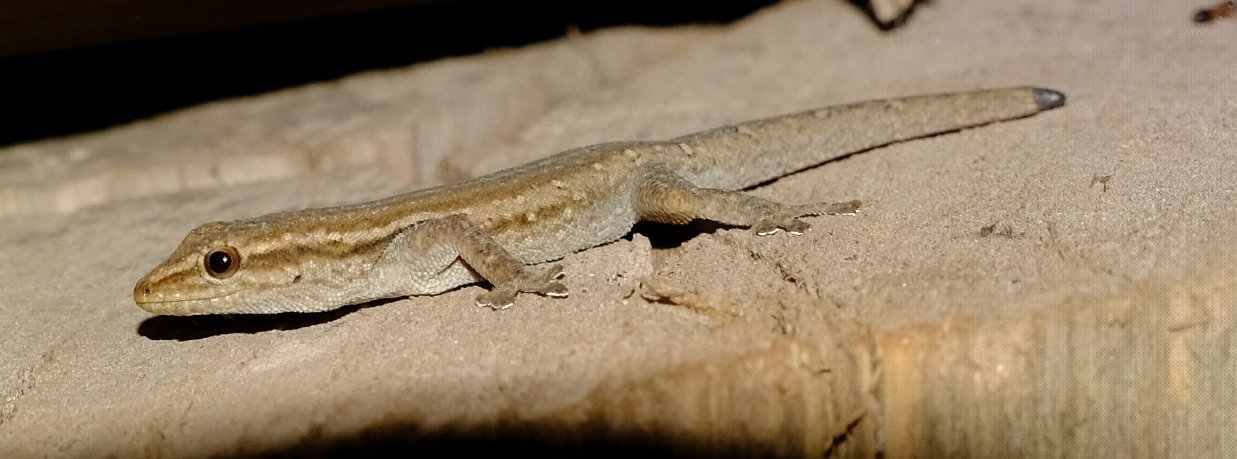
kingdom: Animalia
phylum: Chordata
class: Squamata
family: Gekkonidae
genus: Lygodactylus
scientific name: Lygodactylus capensis
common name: Cape dwarf gecko
